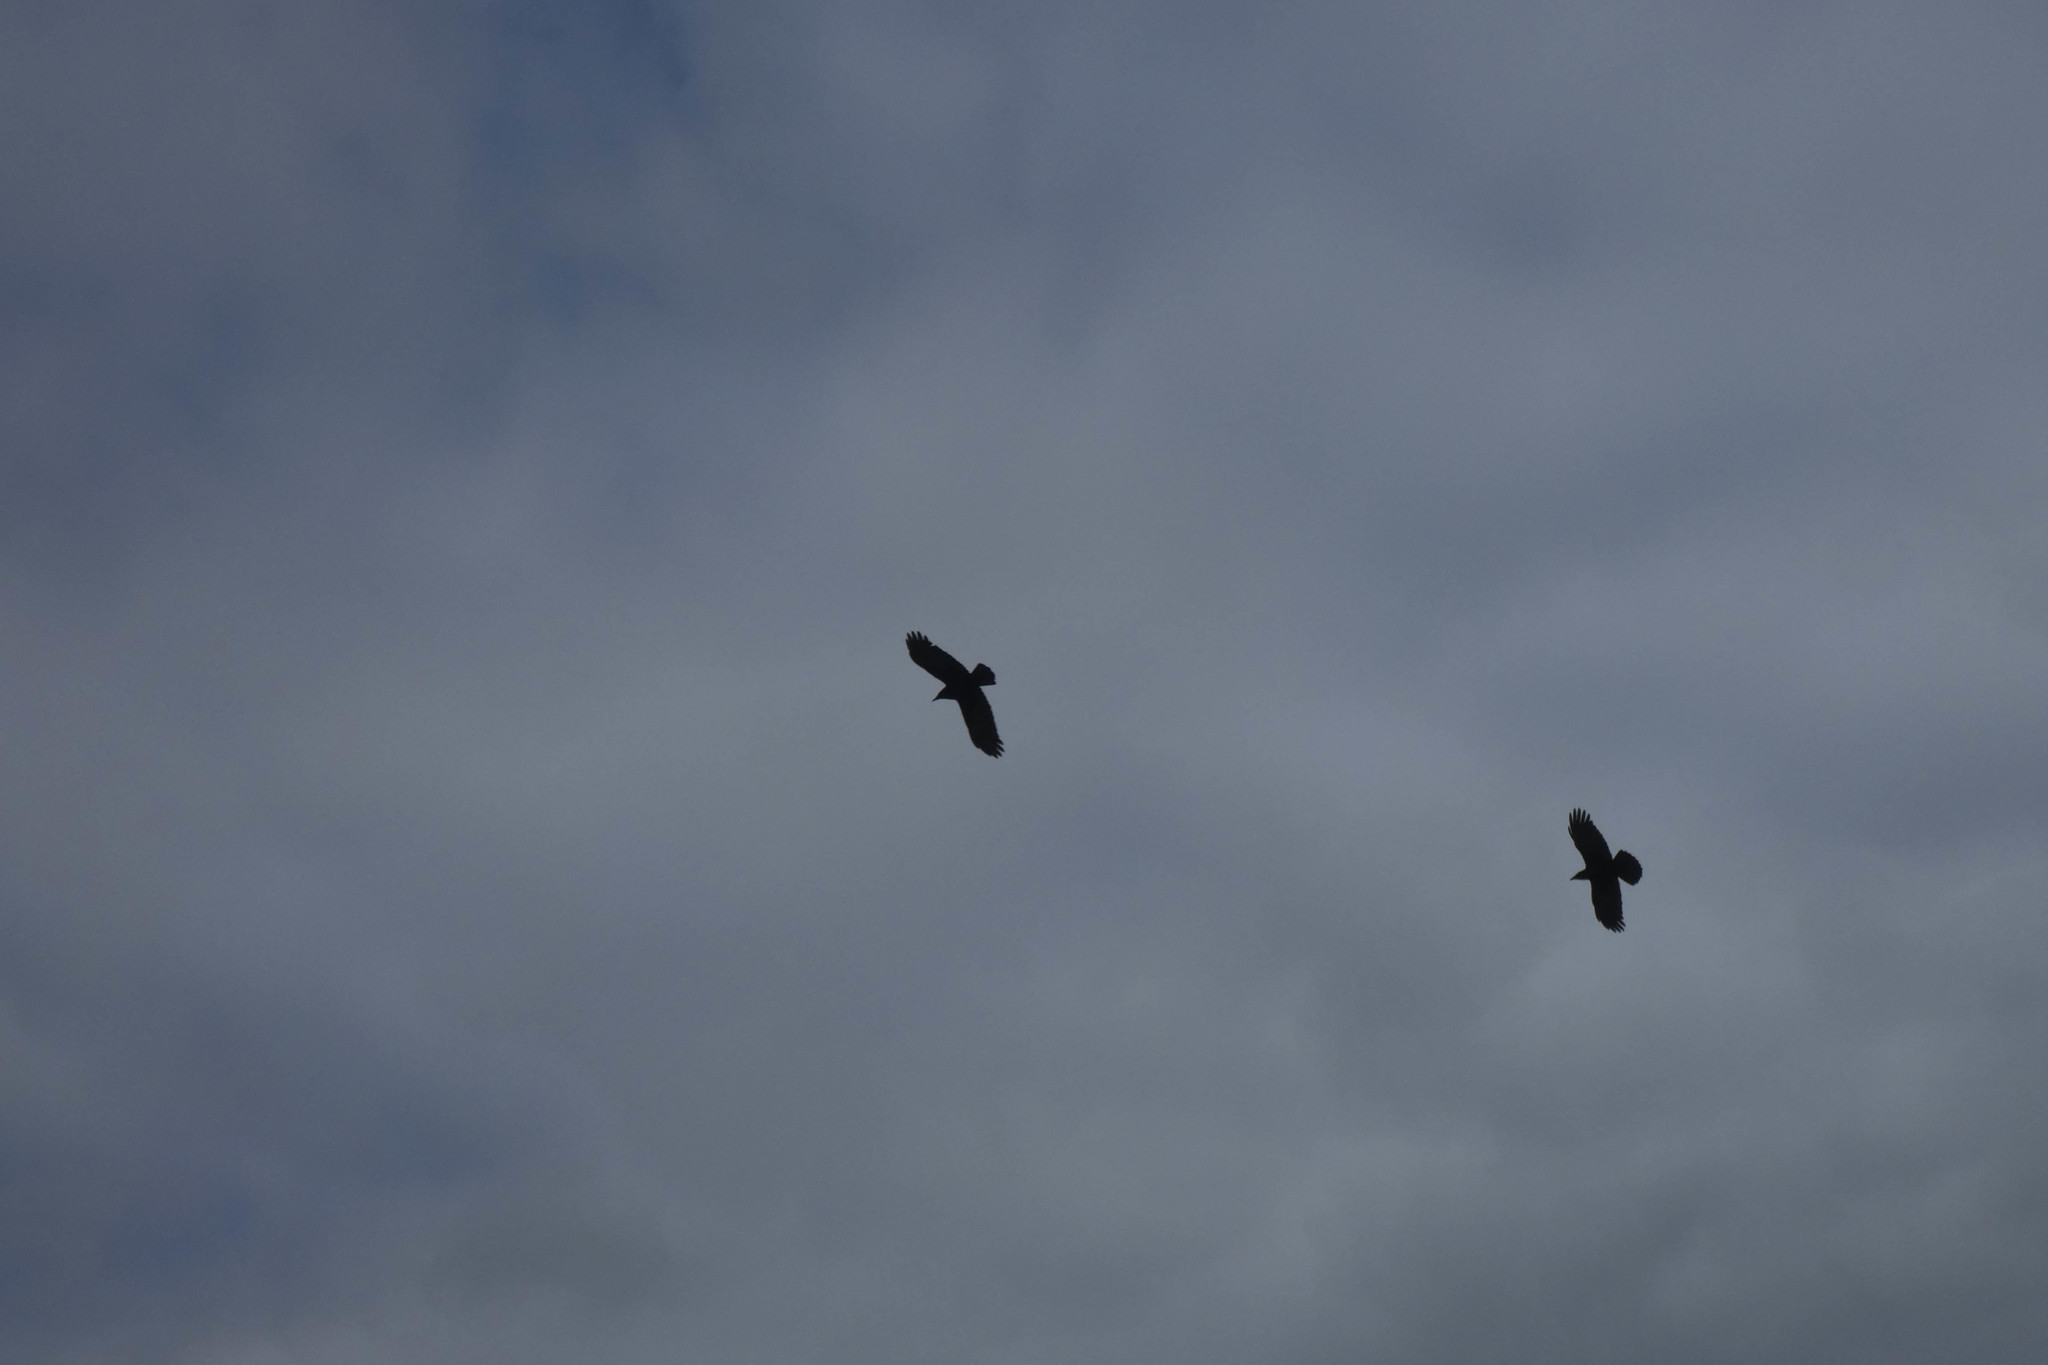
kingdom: Animalia
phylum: Chordata
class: Aves
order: Passeriformes
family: Corvidae
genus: Corvus
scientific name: Corvus brachyrhynchos
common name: American crow
